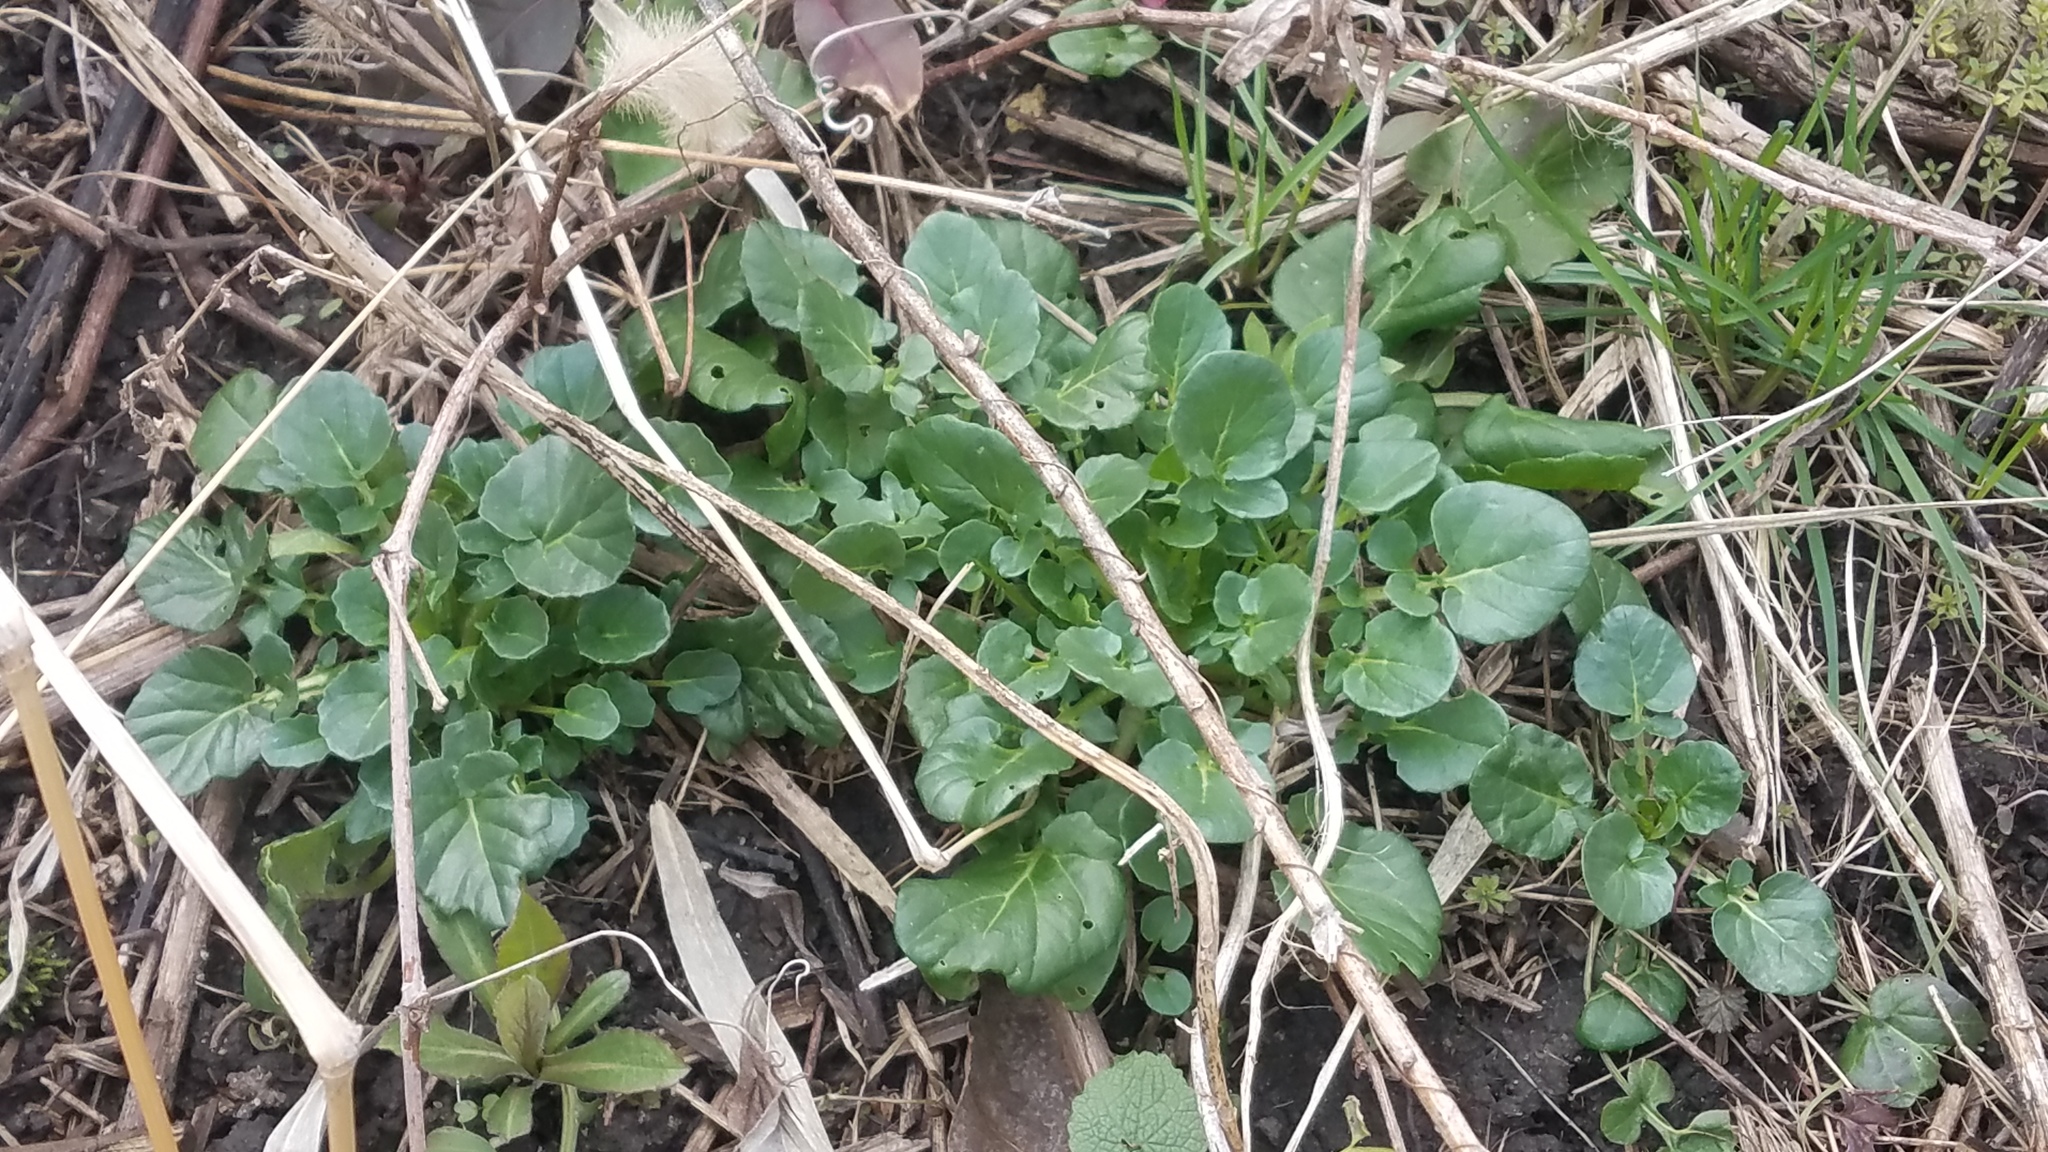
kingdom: Plantae
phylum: Tracheophyta
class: Magnoliopsida
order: Brassicales
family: Brassicaceae
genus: Barbarea
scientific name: Barbarea vulgaris
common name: Cressy-greens
